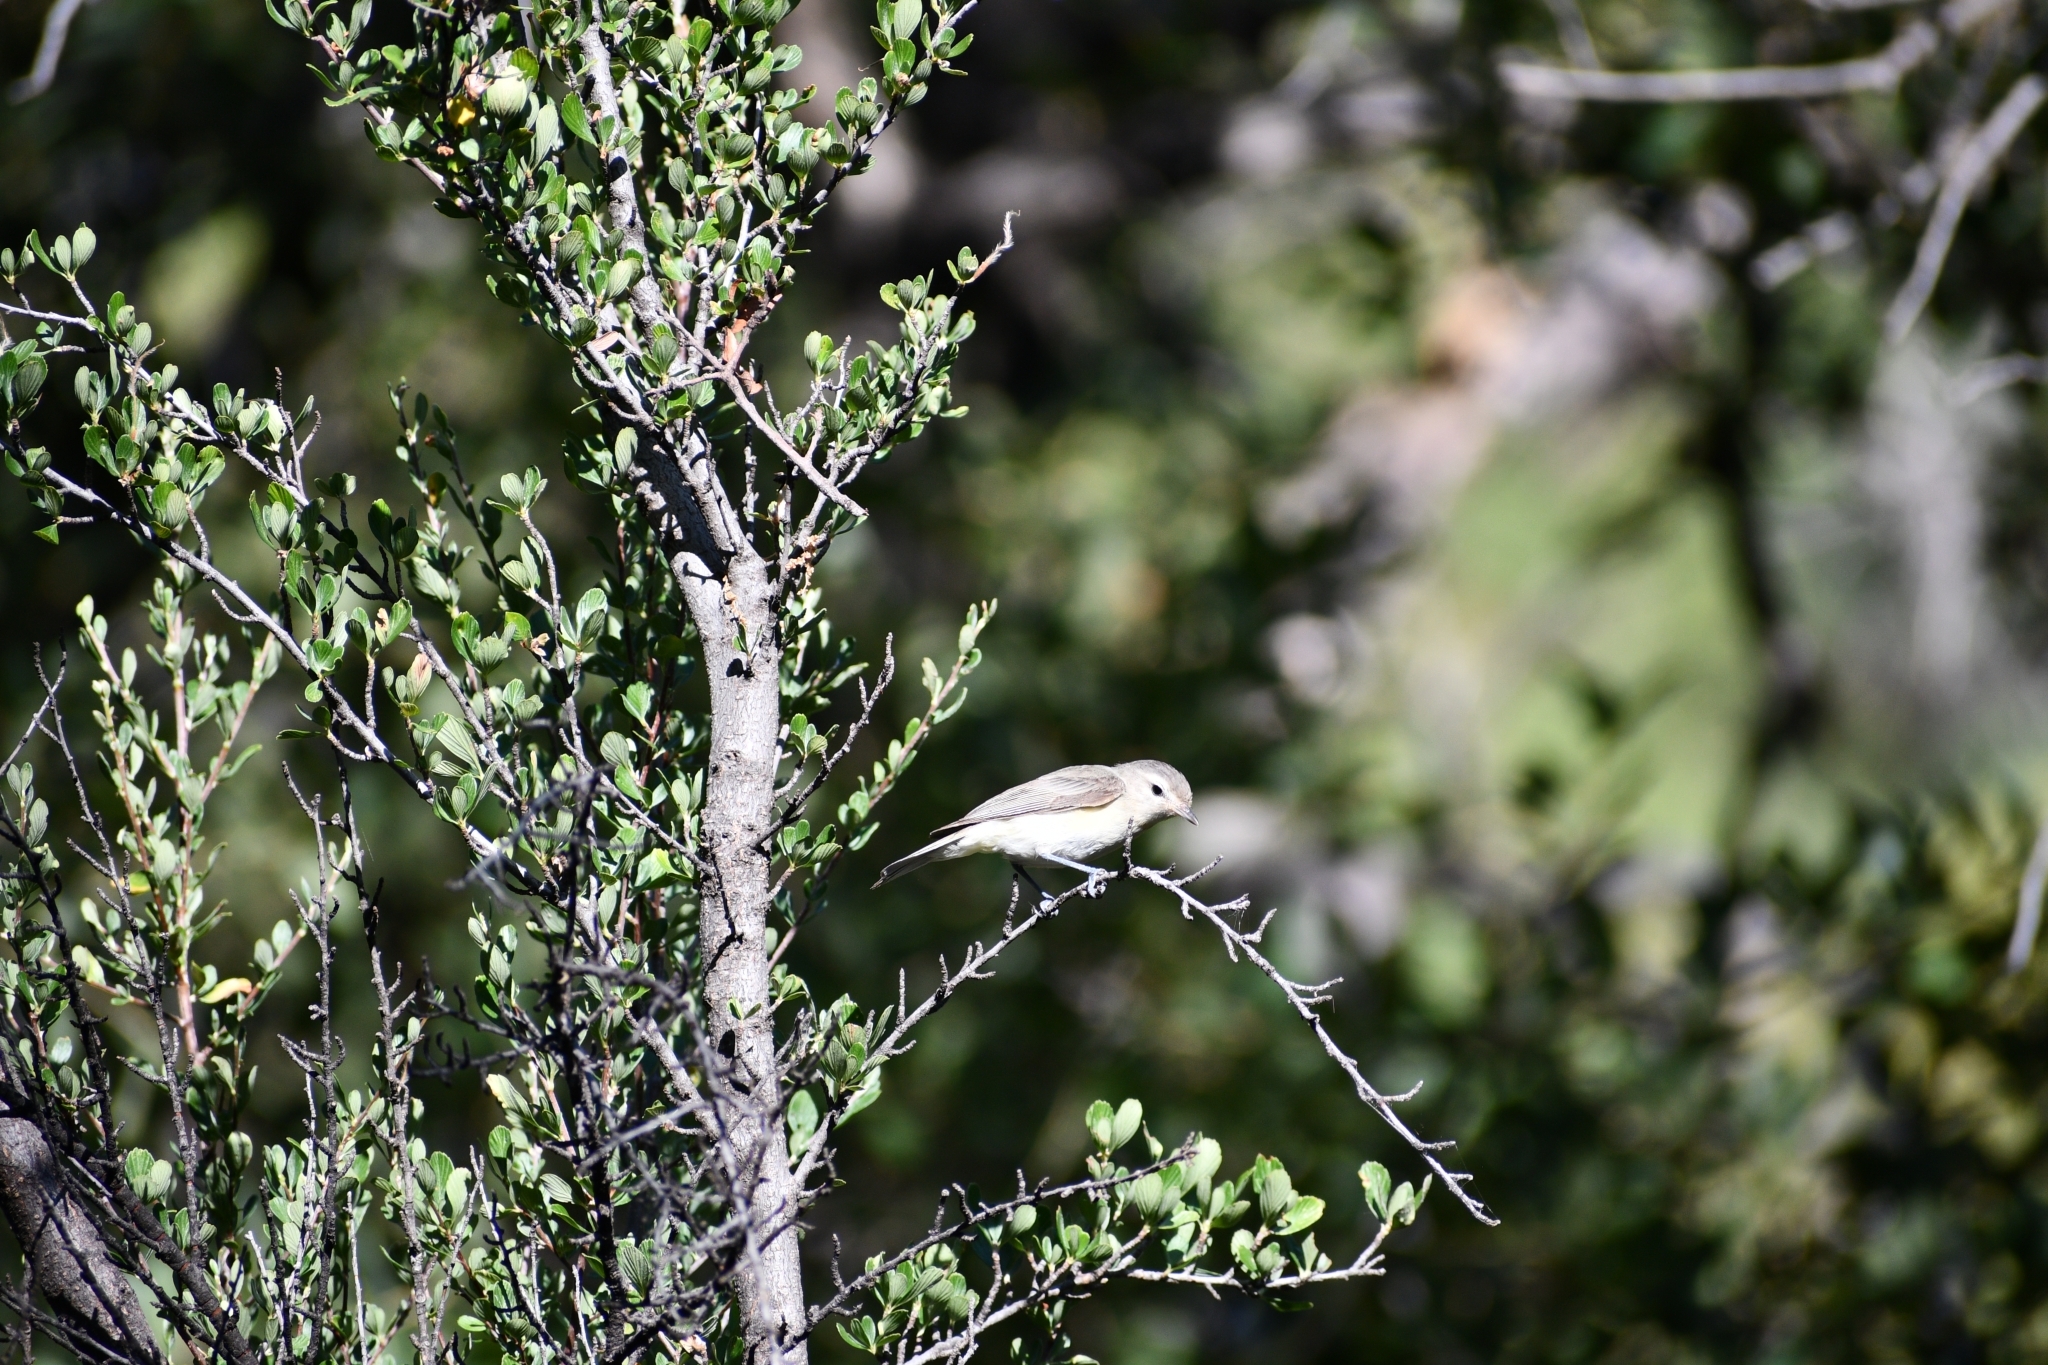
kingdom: Animalia
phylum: Chordata
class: Aves
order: Passeriformes
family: Vireonidae
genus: Vireo
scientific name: Vireo gilvus
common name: Warbling vireo
